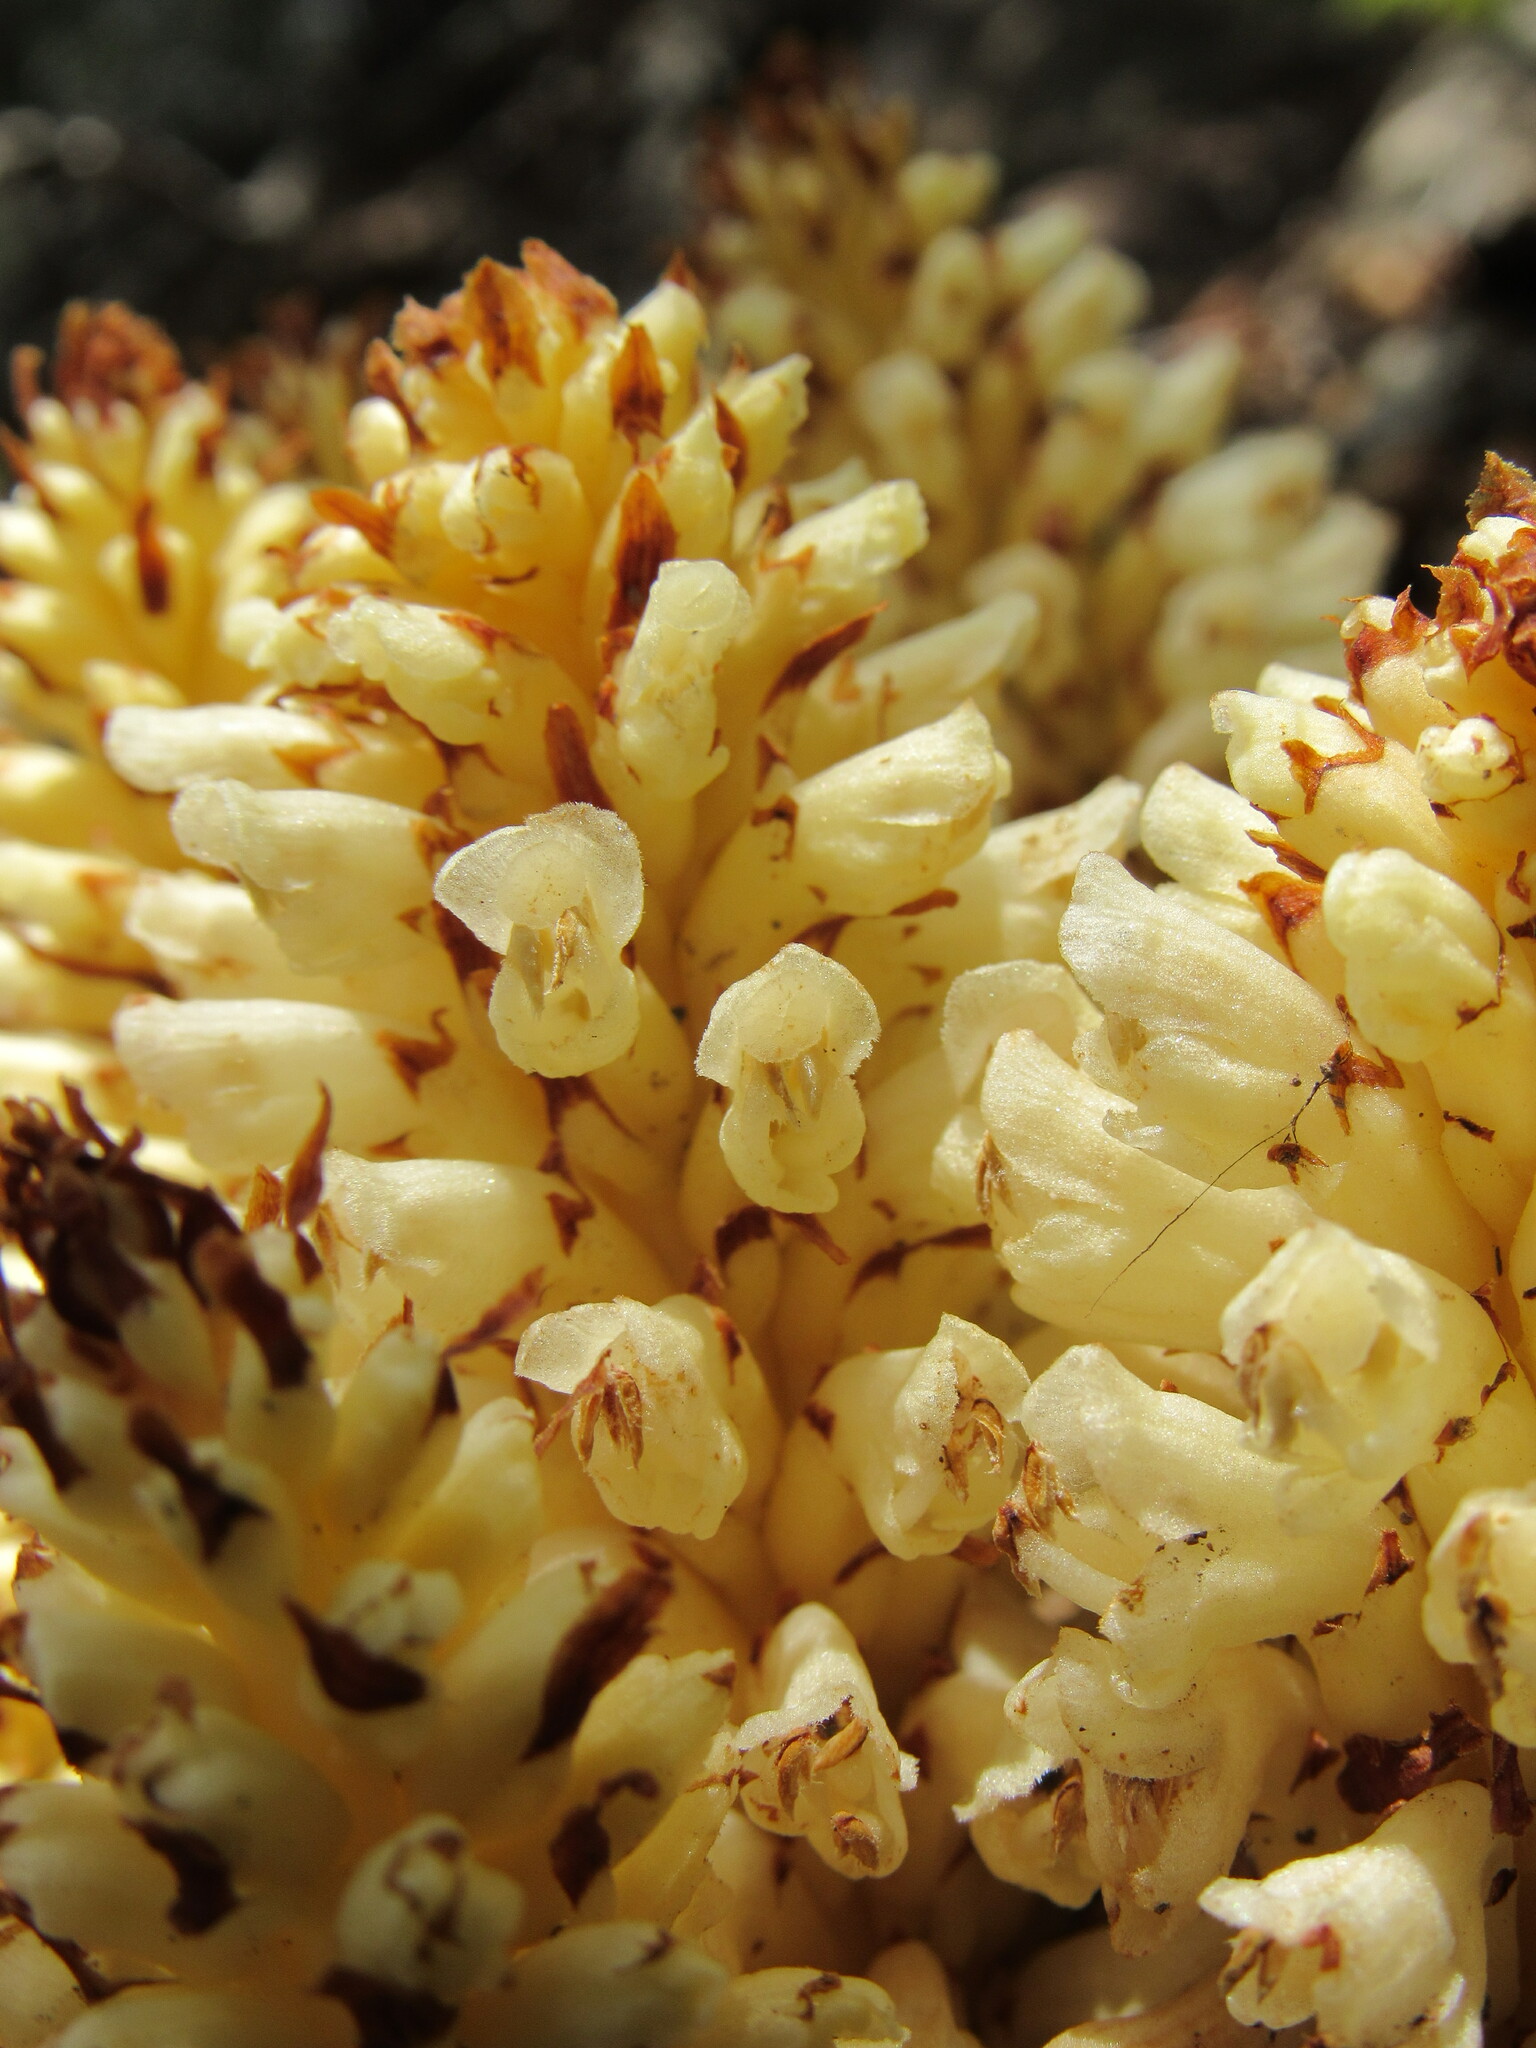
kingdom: Plantae
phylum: Tracheophyta
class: Magnoliopsida
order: Lamiales
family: Orobanchaceae
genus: Conopholis
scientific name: Conopholis alpina
